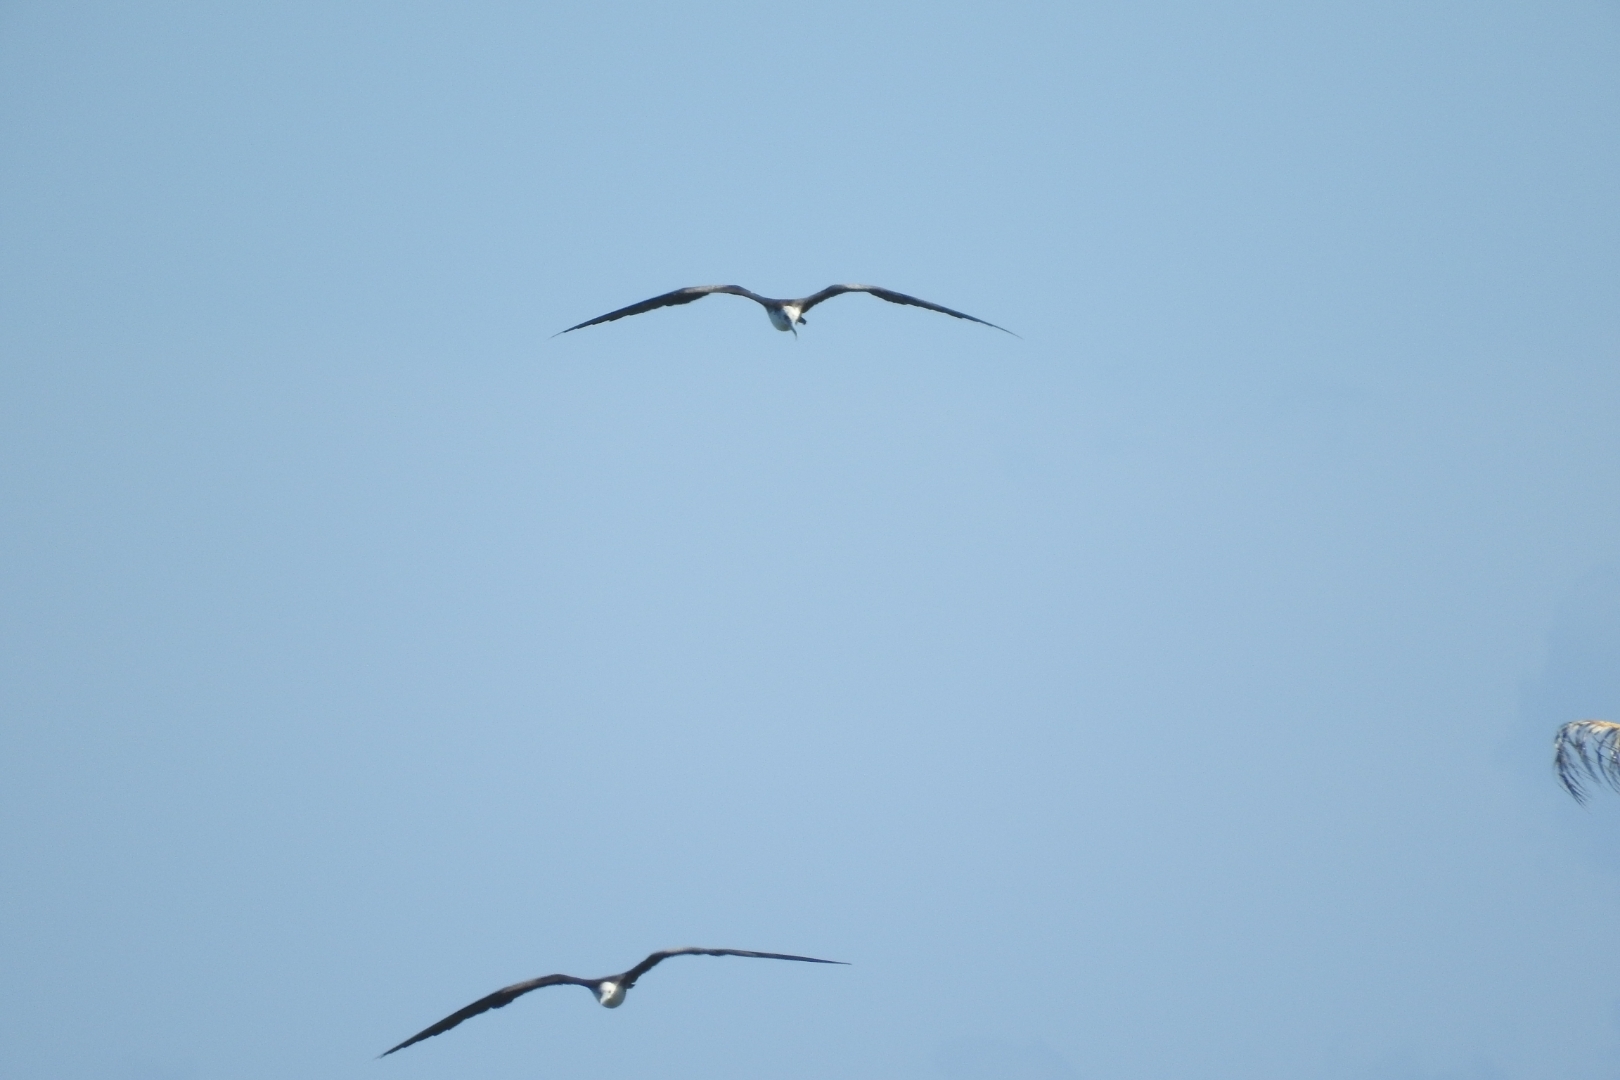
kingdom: Animalia
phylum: Chordata
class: Aves
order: Suliformes
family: Fregatidae
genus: Fregata
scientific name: Fregata magnificens
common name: Magnificent frigatebird
